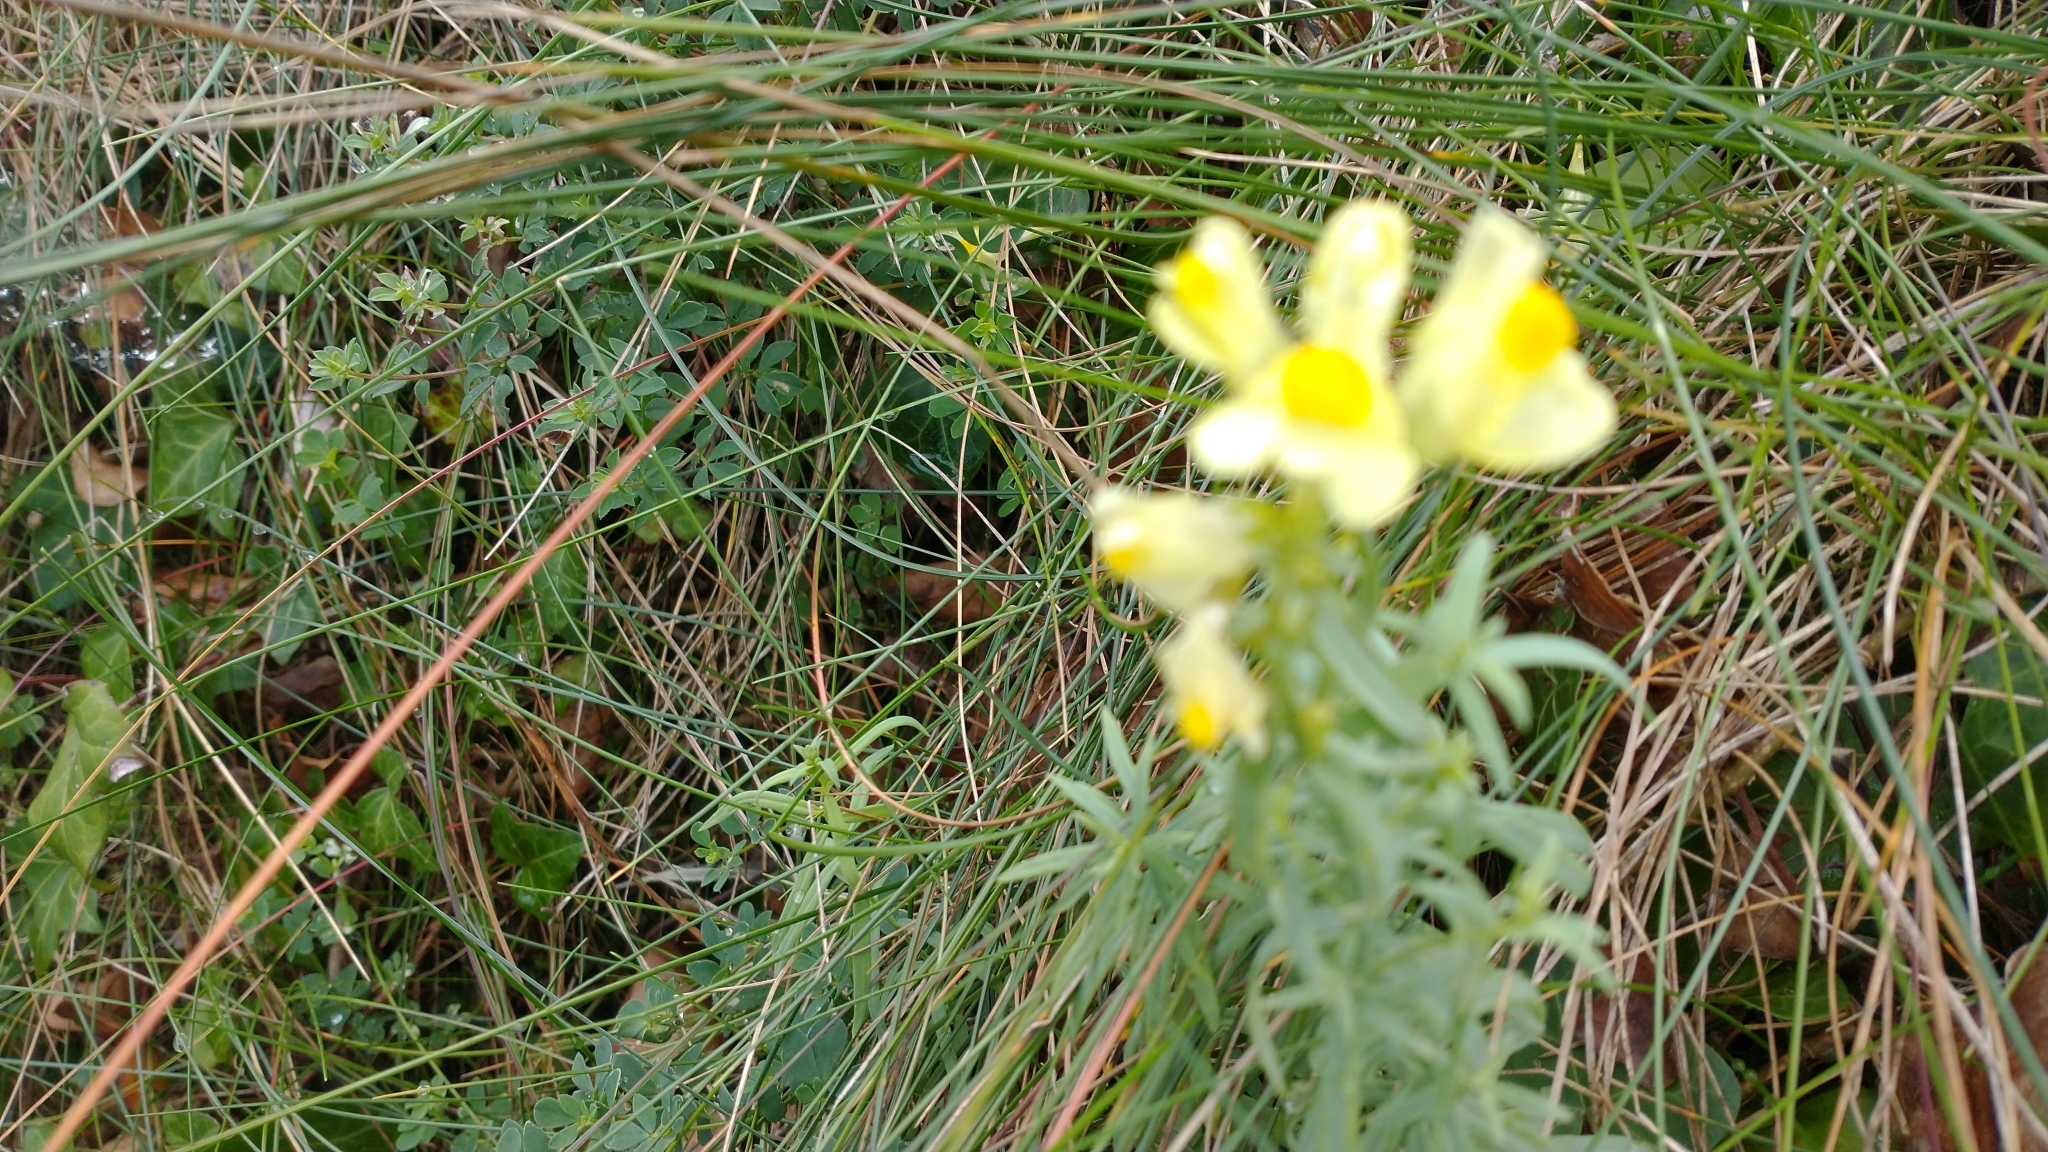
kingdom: Plantae
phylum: Tracheophyta
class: Magnoliopsida
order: Lamiales
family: Plantaginaceae
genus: Linaria
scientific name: Linaria vulgaris
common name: Butter and eggs
